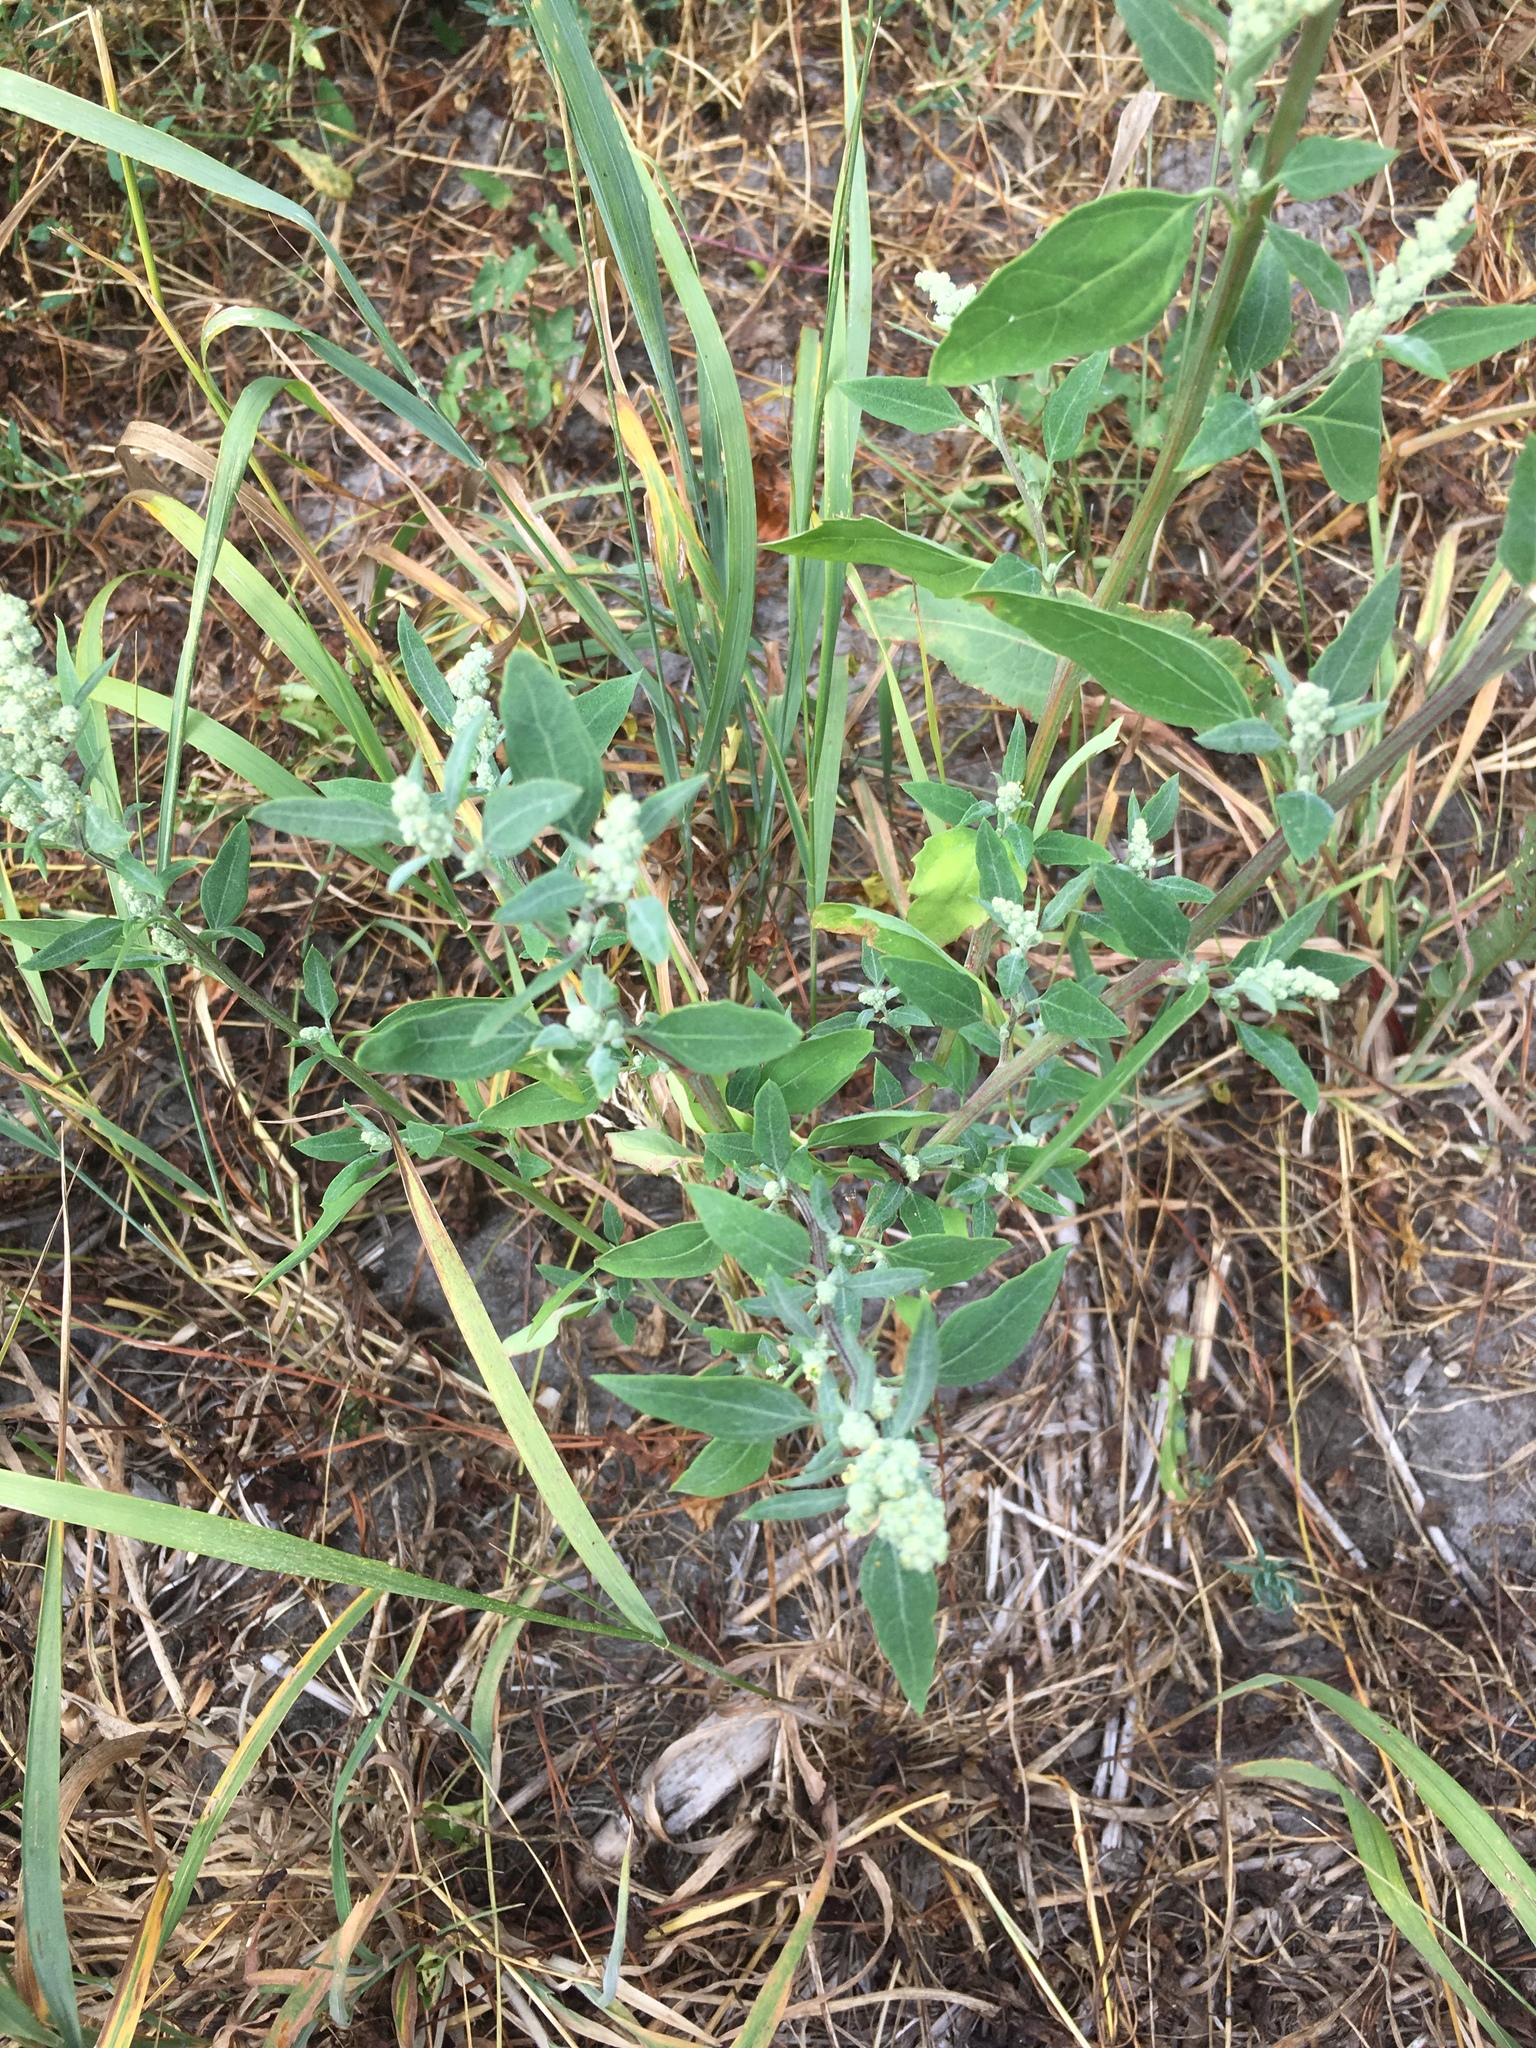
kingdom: Plantae
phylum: Tracheophyta
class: Magnoliopsida
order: Caryophyllales
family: Amaranthaceae
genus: Chenopodium
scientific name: Chenopodium album
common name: Fat-hen
